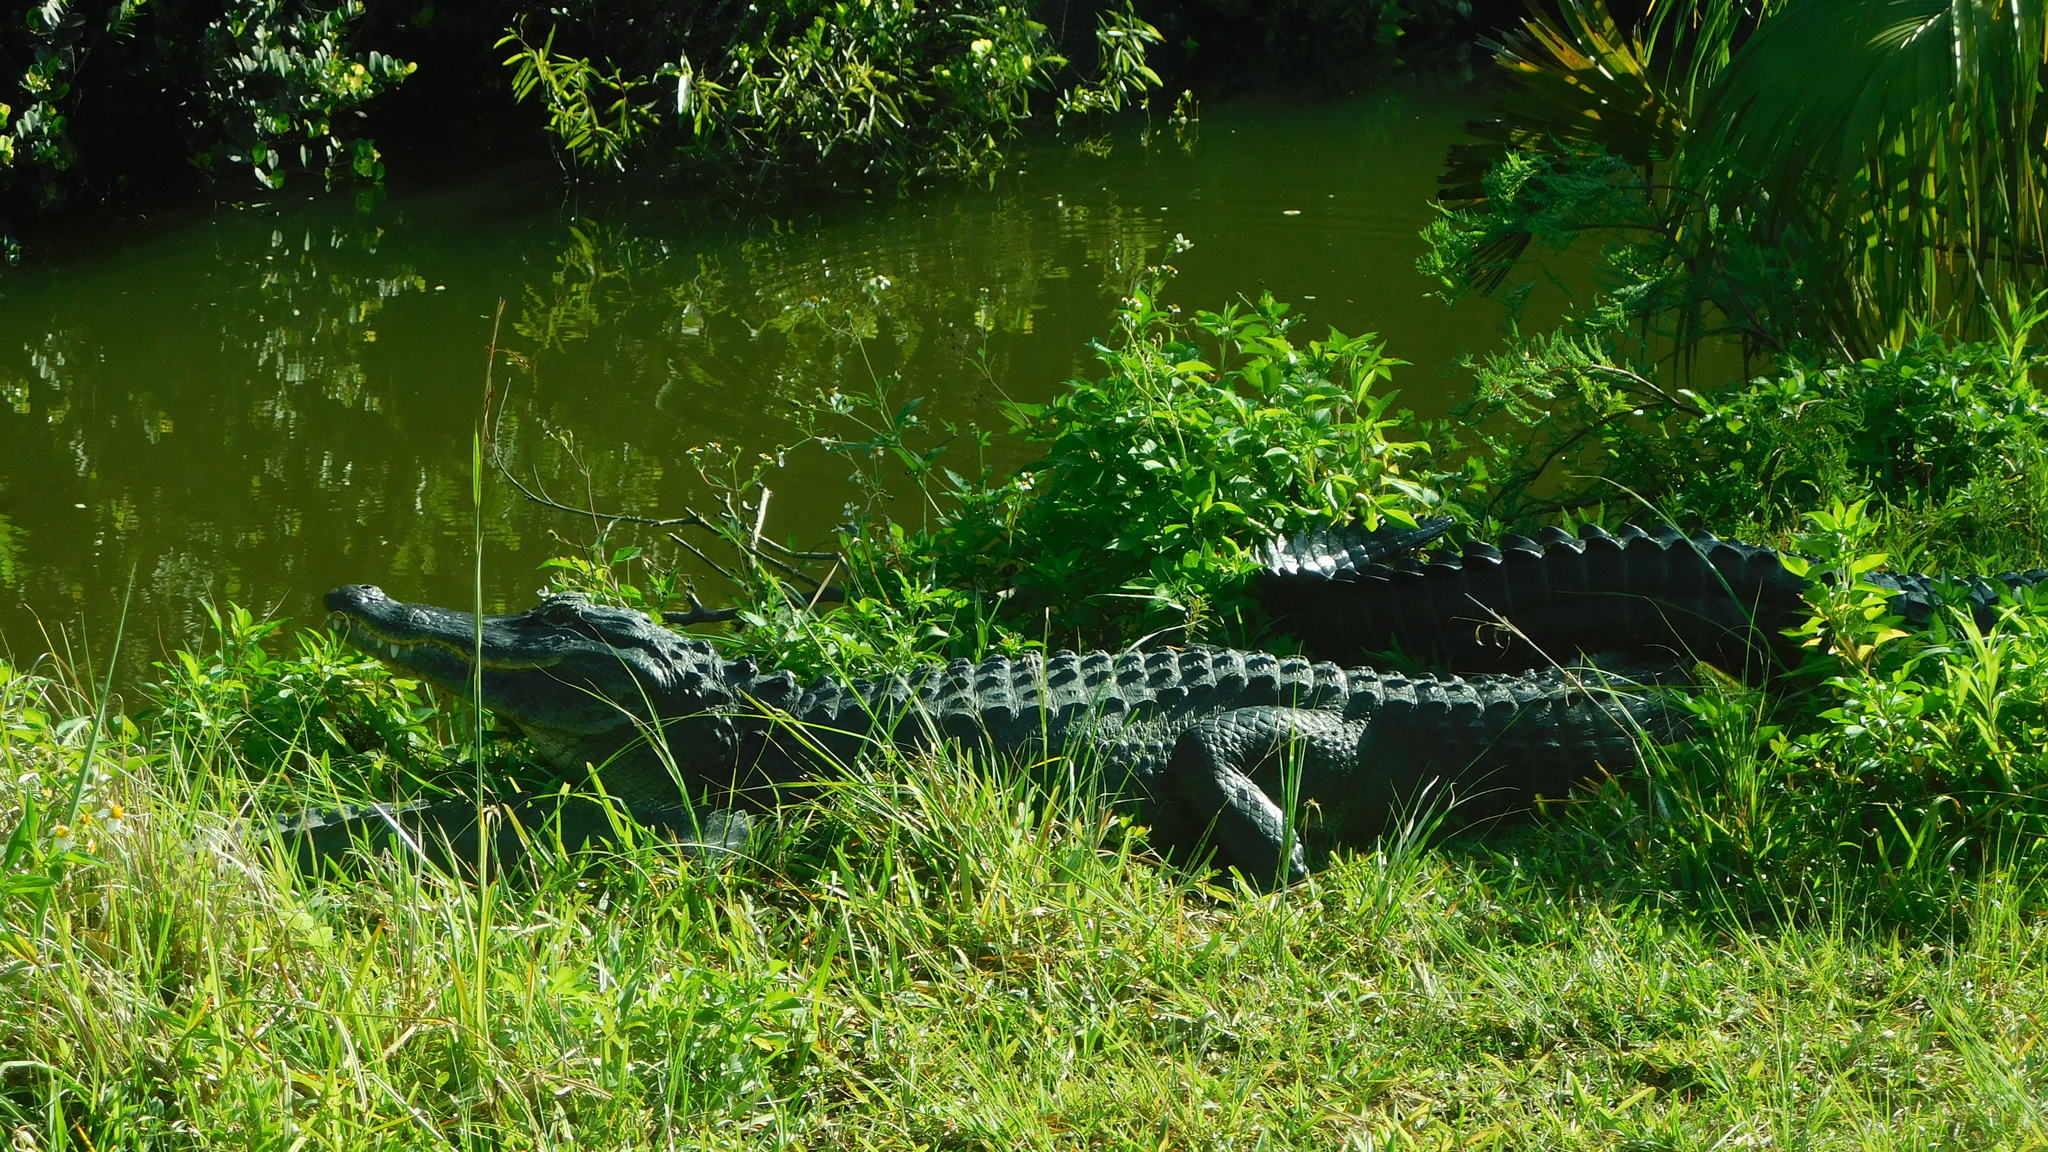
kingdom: Animalia
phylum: Chordata
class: Crocodylia
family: Alligatoridae
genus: Alligator
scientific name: Alligator mississippiensis
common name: American alligator
